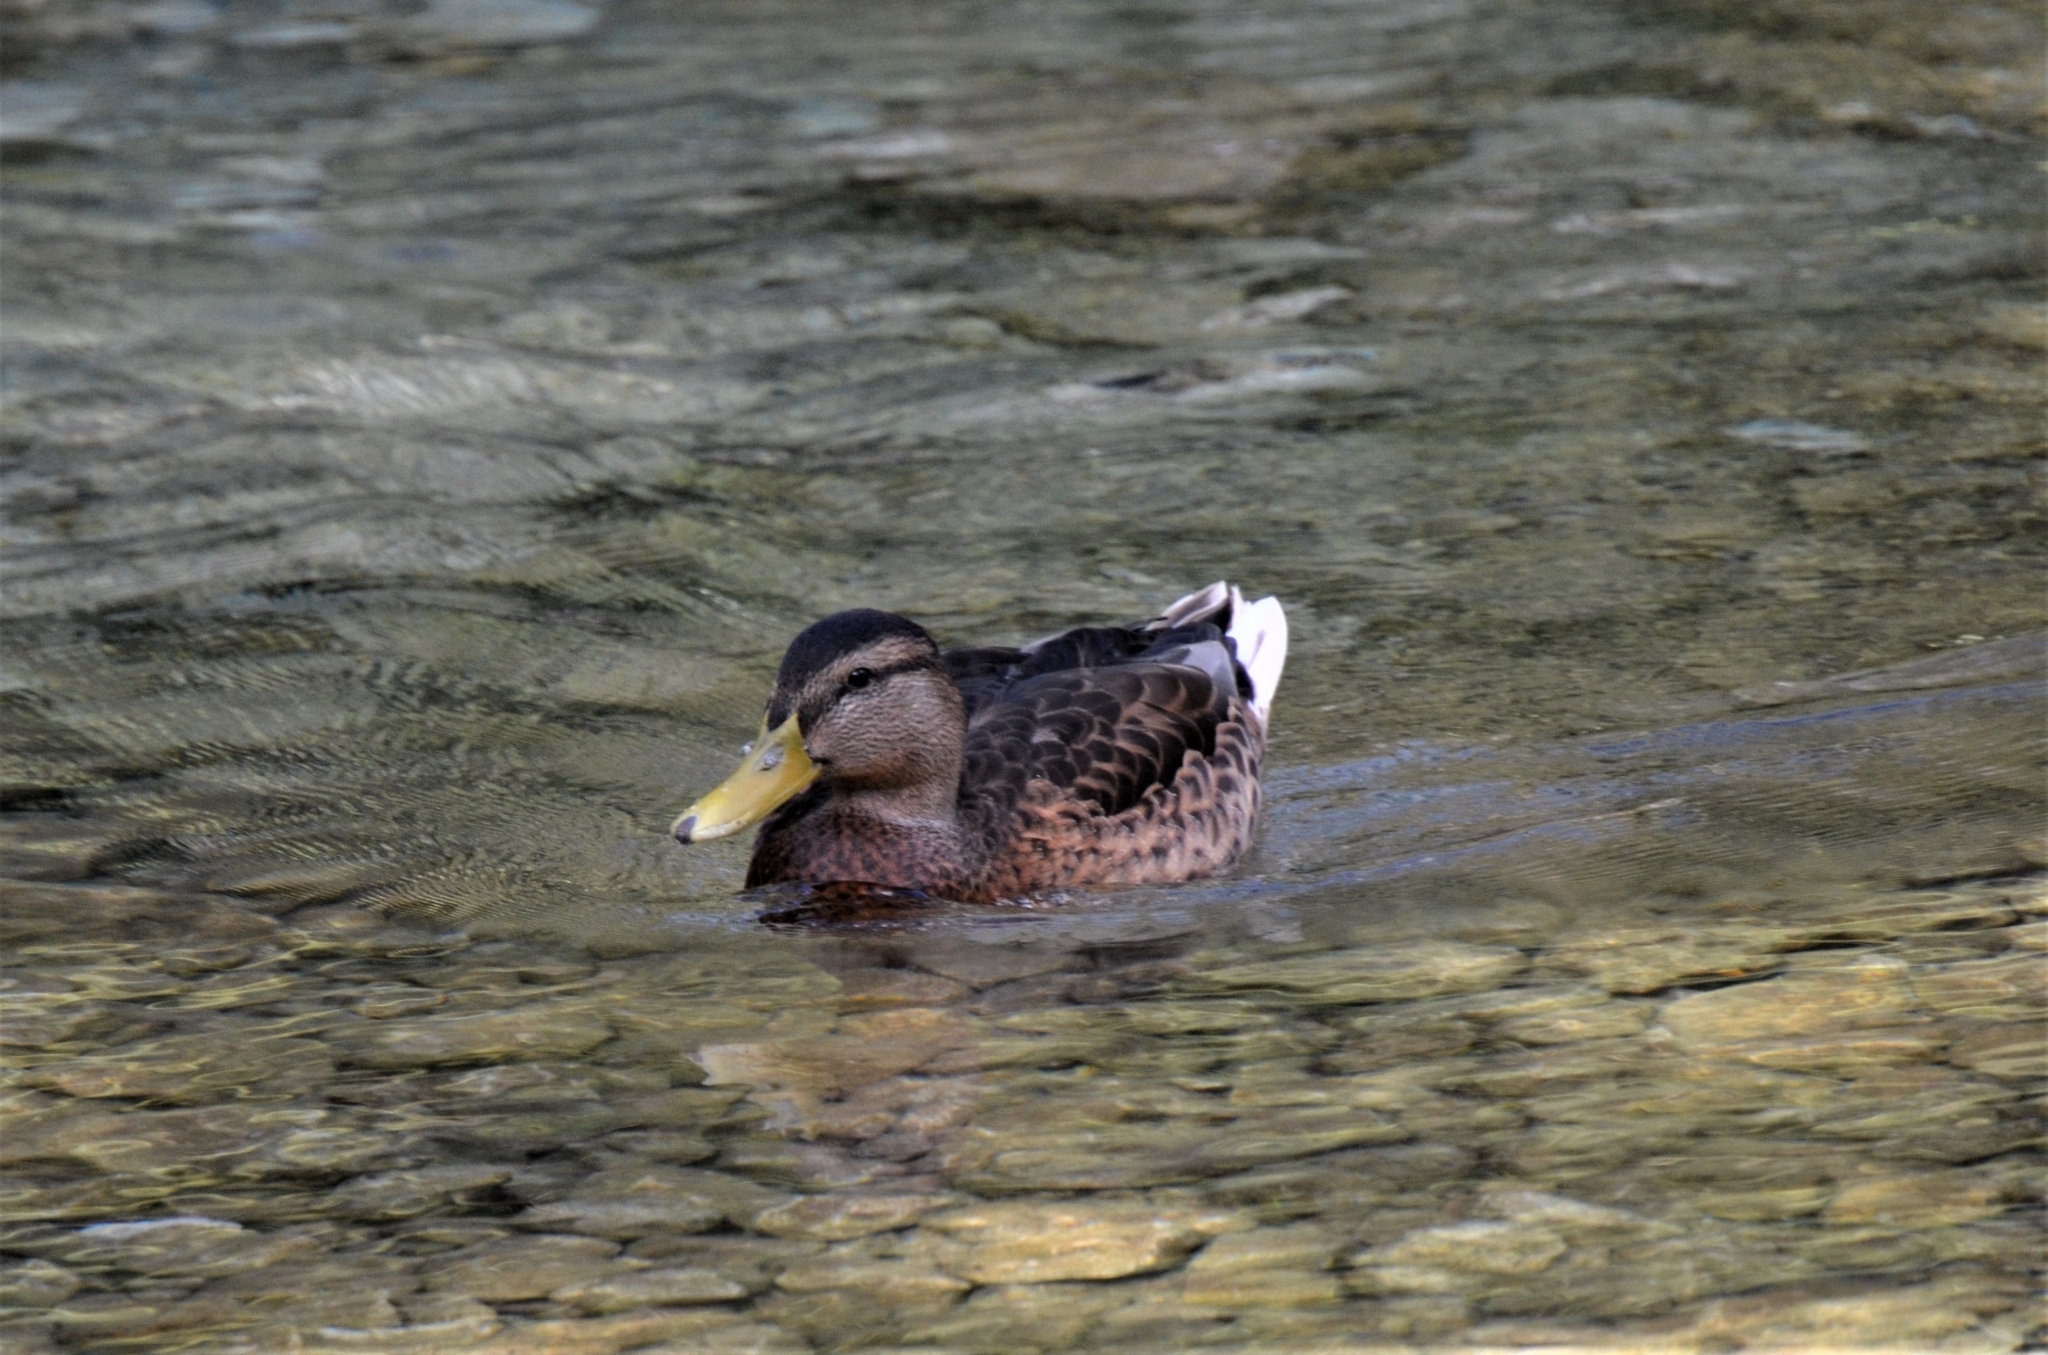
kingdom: Animalia
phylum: Chordata
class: Aves
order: Anseriformes
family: Anatidae
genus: Anas
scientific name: Anas platyrhynchos
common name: Mallard
